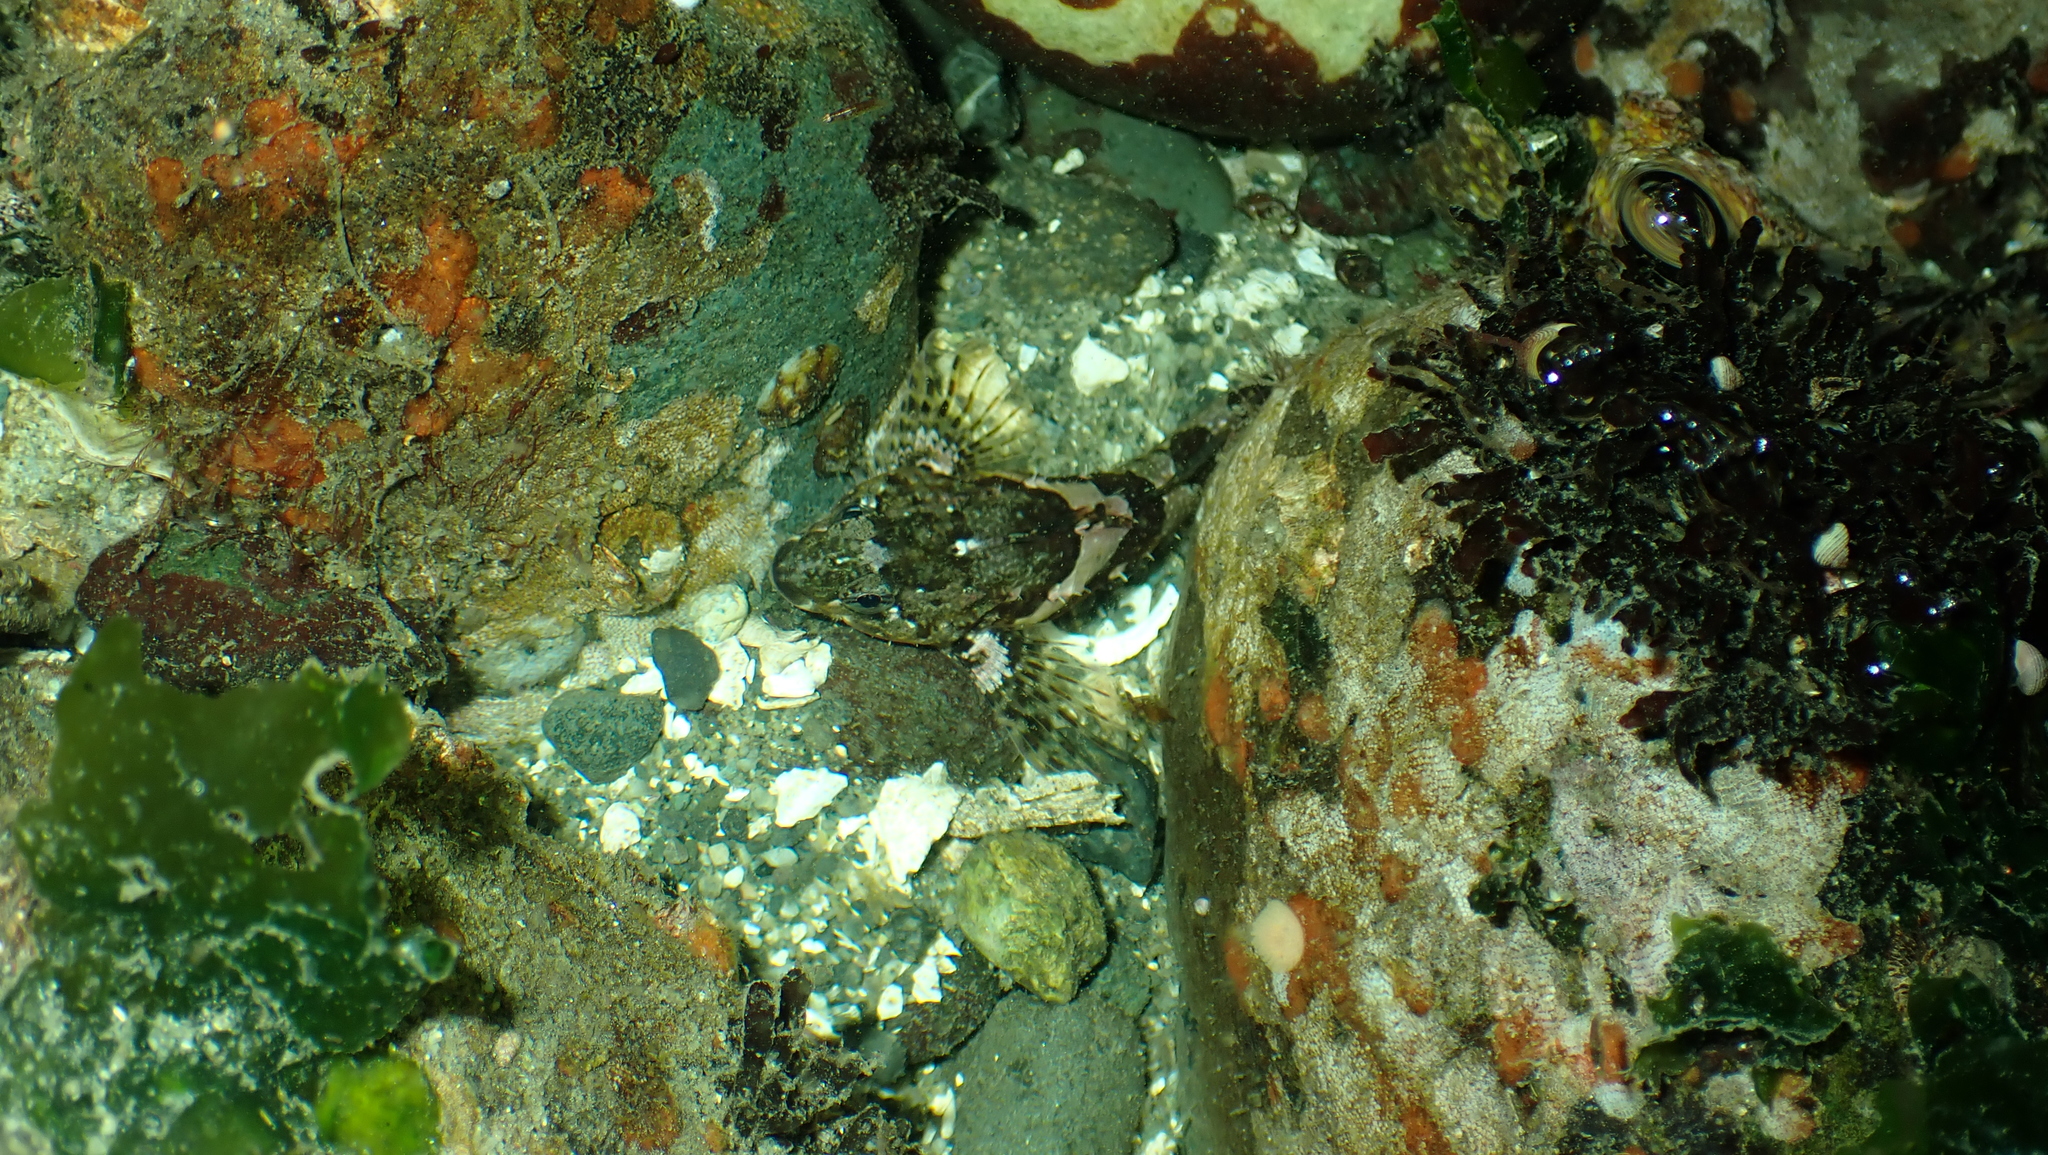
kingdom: Animalia
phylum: Chordata
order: Scorpaeniformes
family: Cottidae
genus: Oligocottus
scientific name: Oligocottus maculosus
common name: Tidepool sculpin
